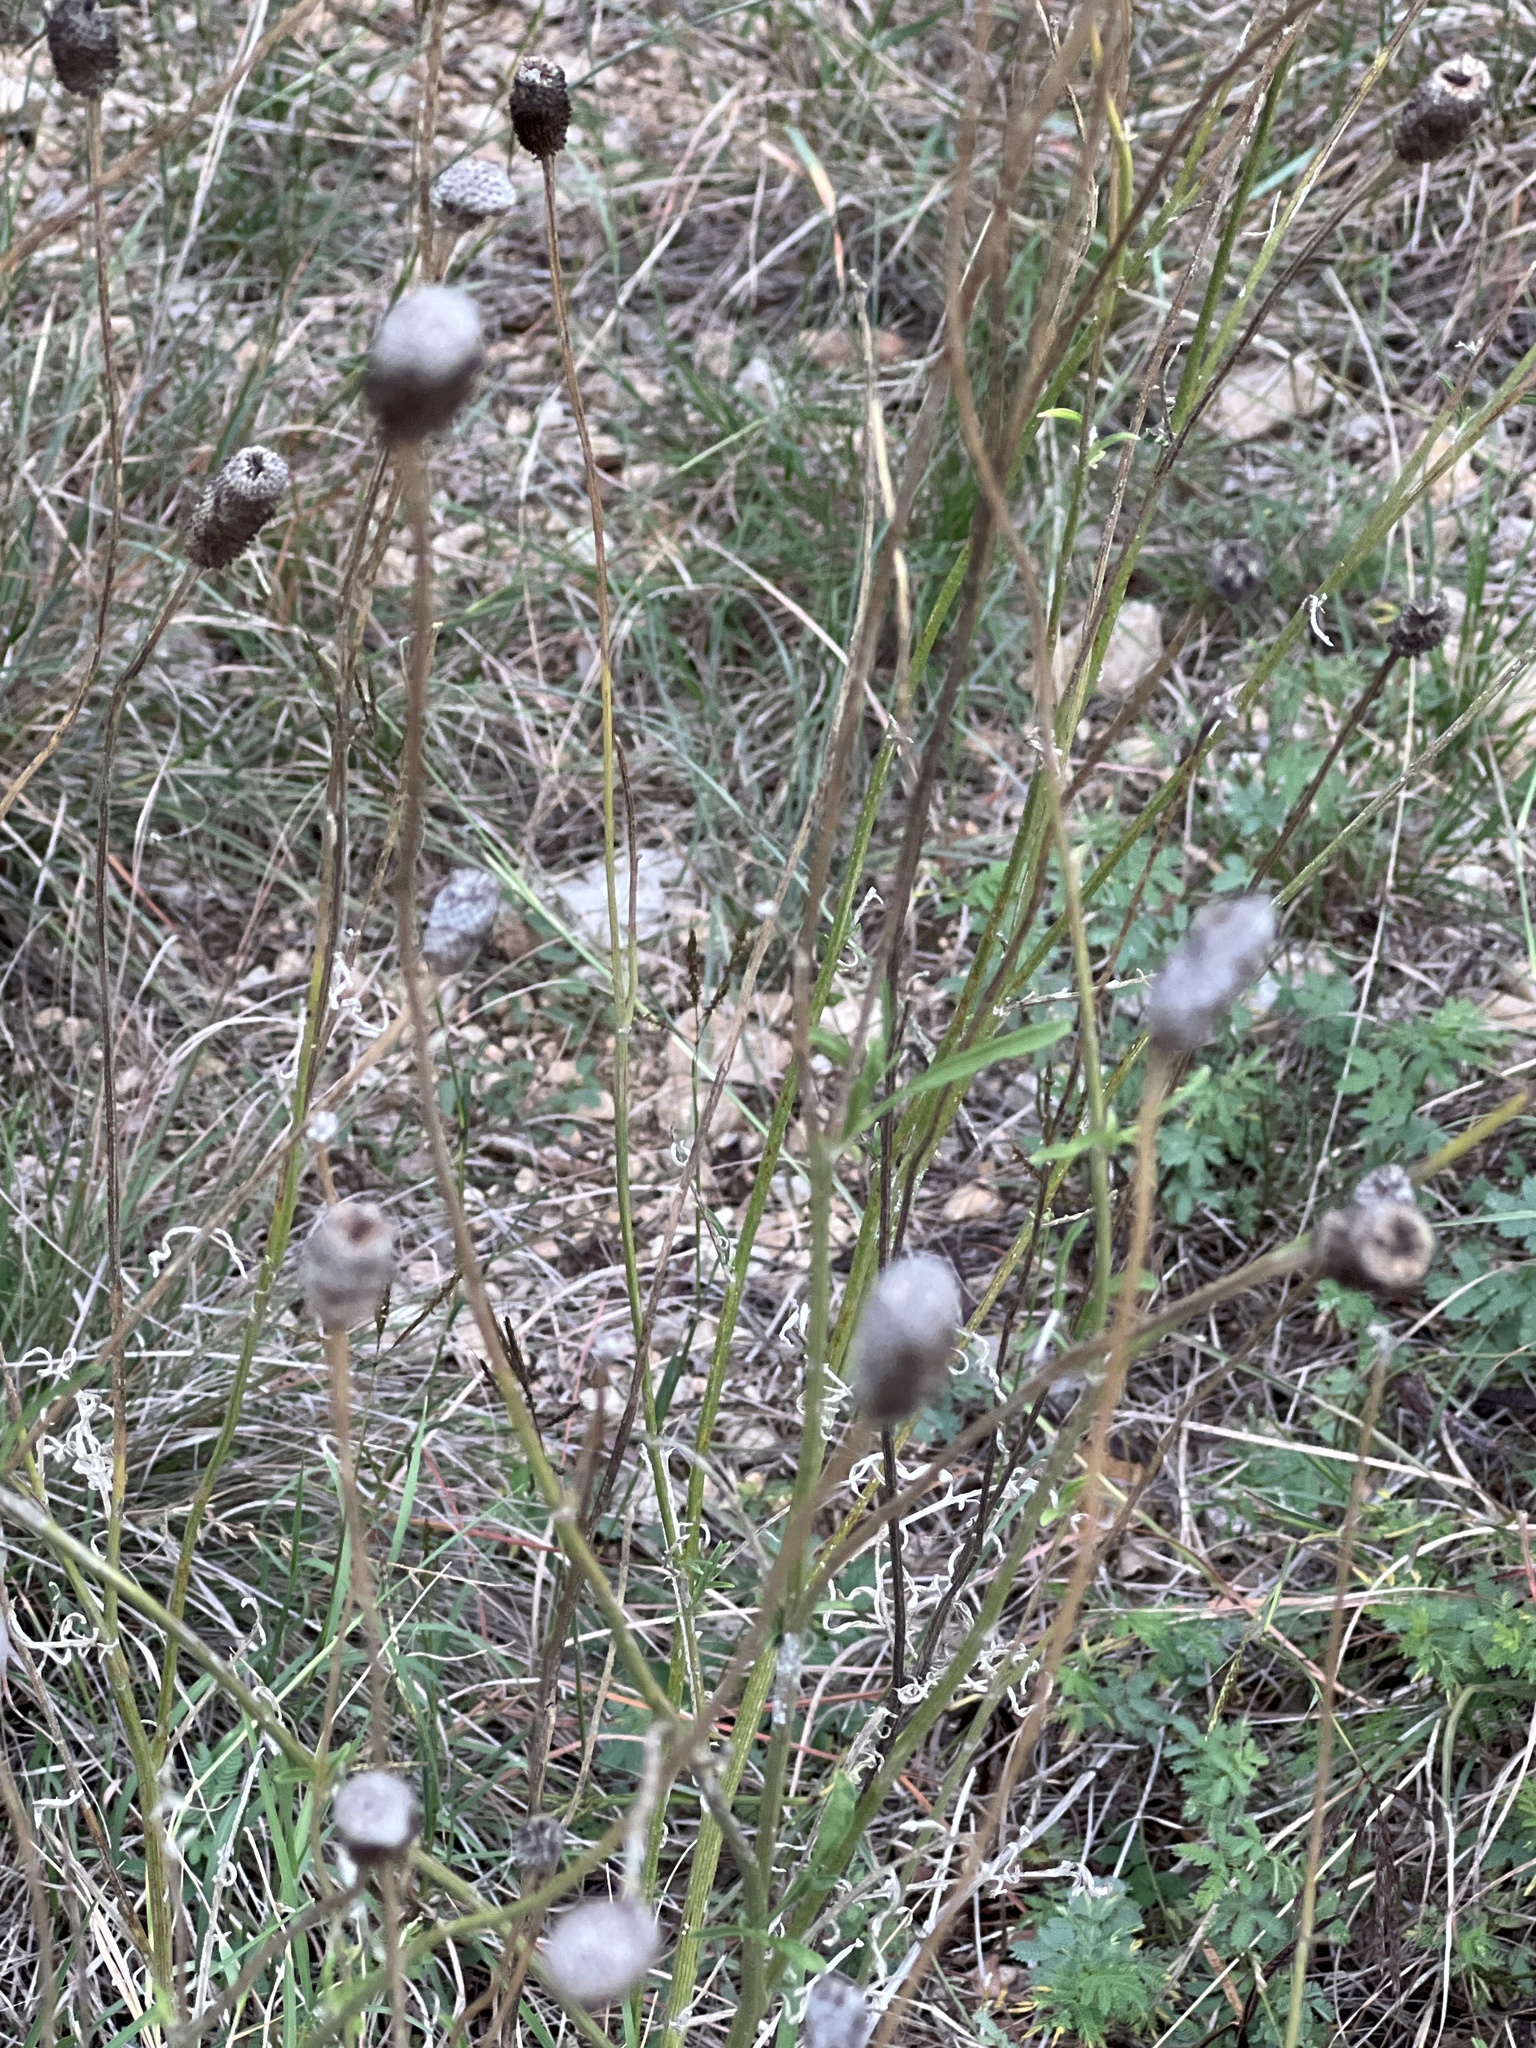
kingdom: Plantae
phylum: Tracheophyta
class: Magnoliopsida
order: Asterales
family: Asteraceae
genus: Ratibida
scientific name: Ratibida columnifera
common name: Prairie coneflower
